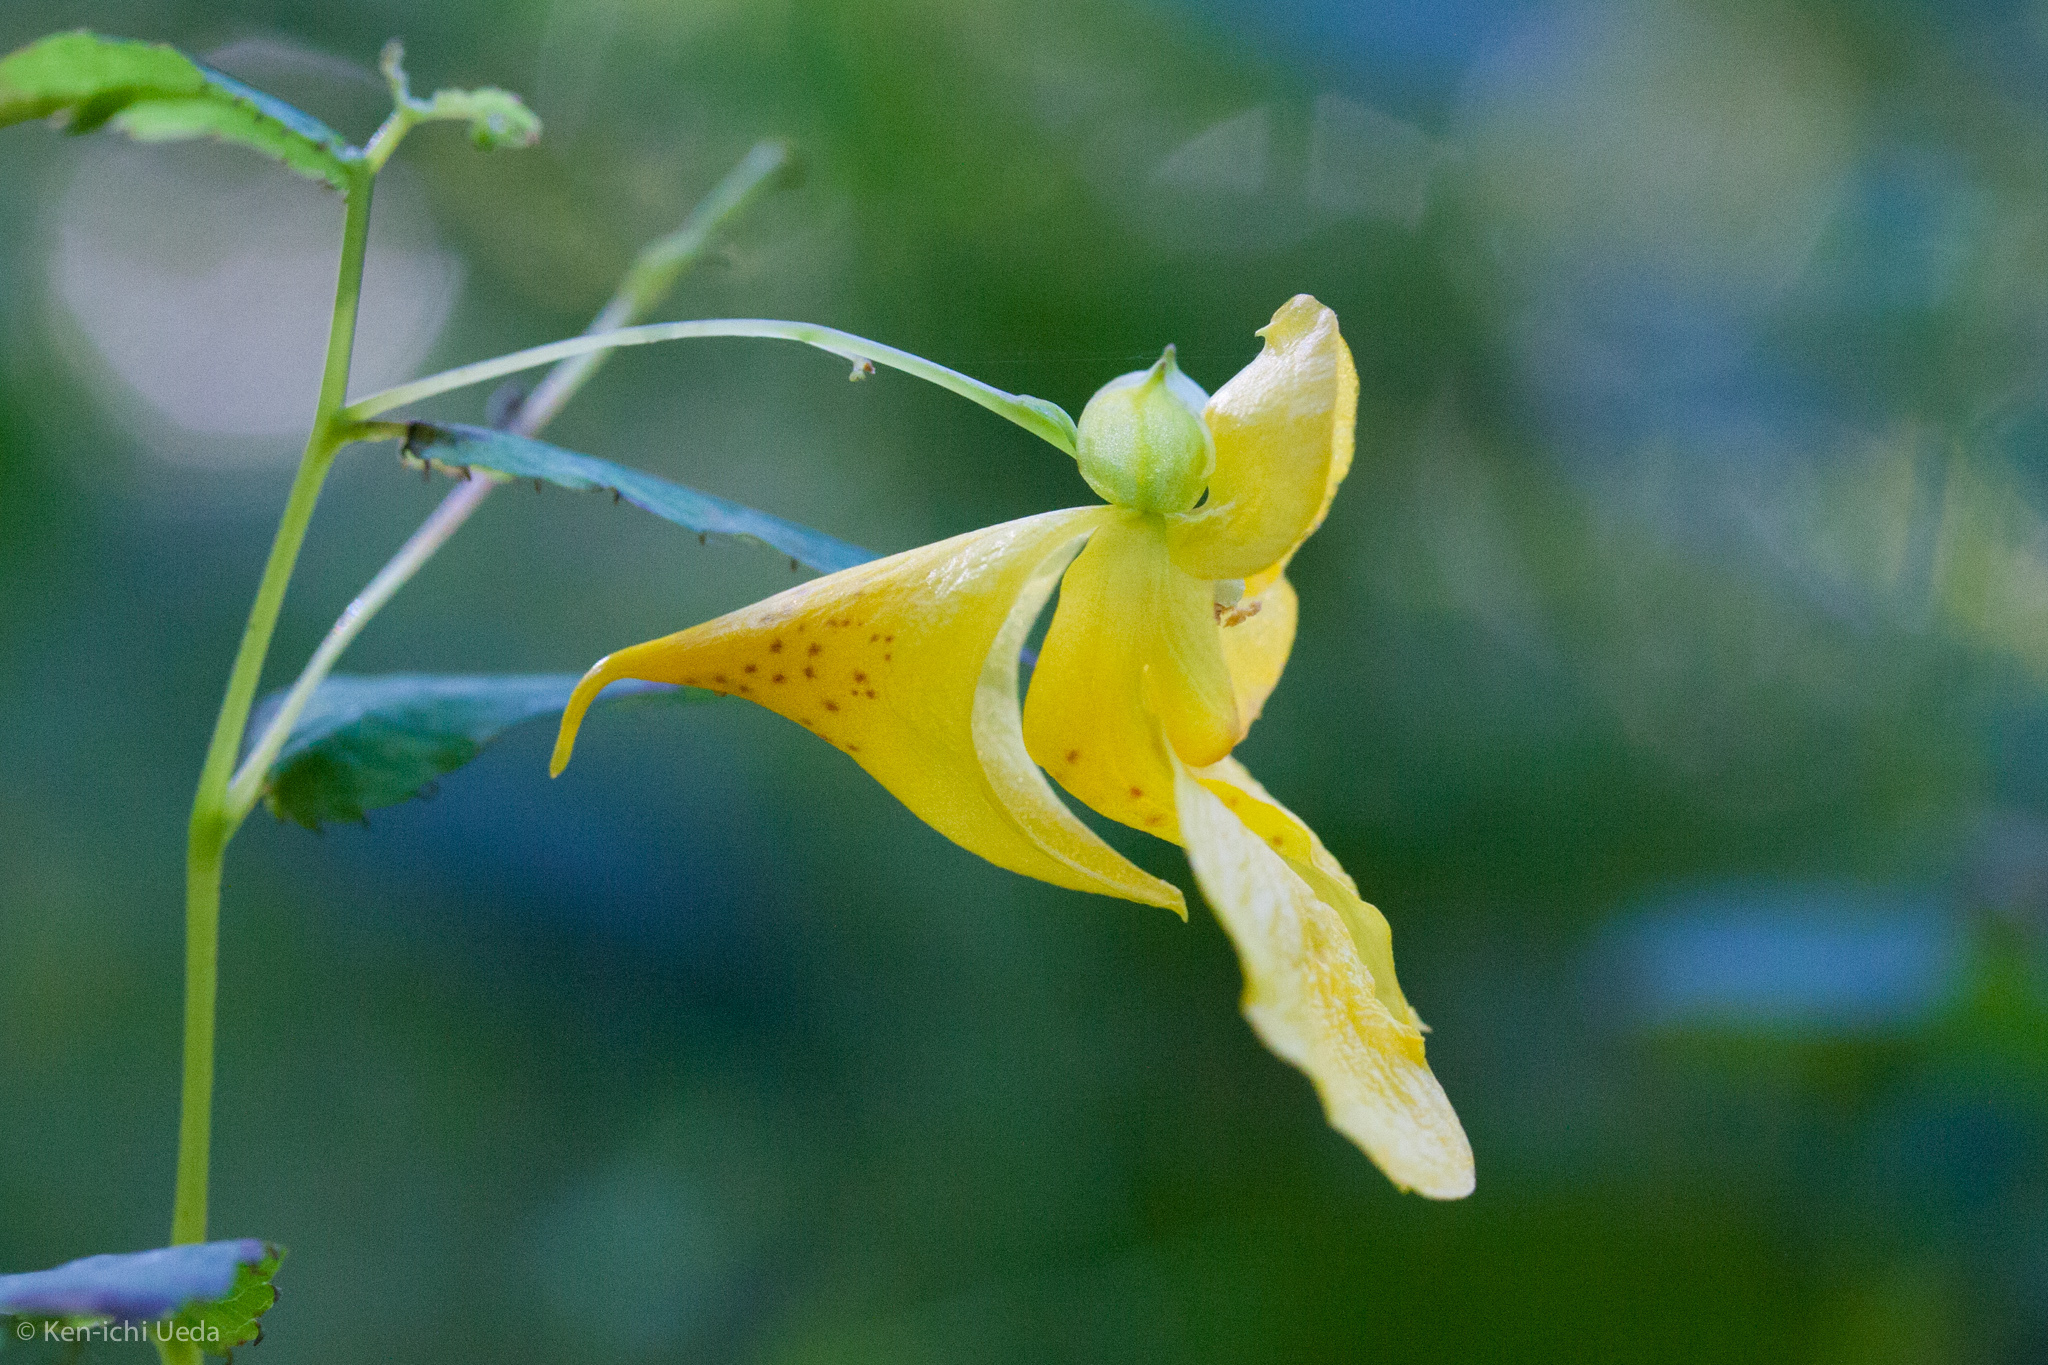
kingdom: Plantae
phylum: Tracheophyta
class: Magnoliopsida
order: Ericales
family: Balsaminaceae
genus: Impatiens
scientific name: Impatiens pallida
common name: Pale snapweed
